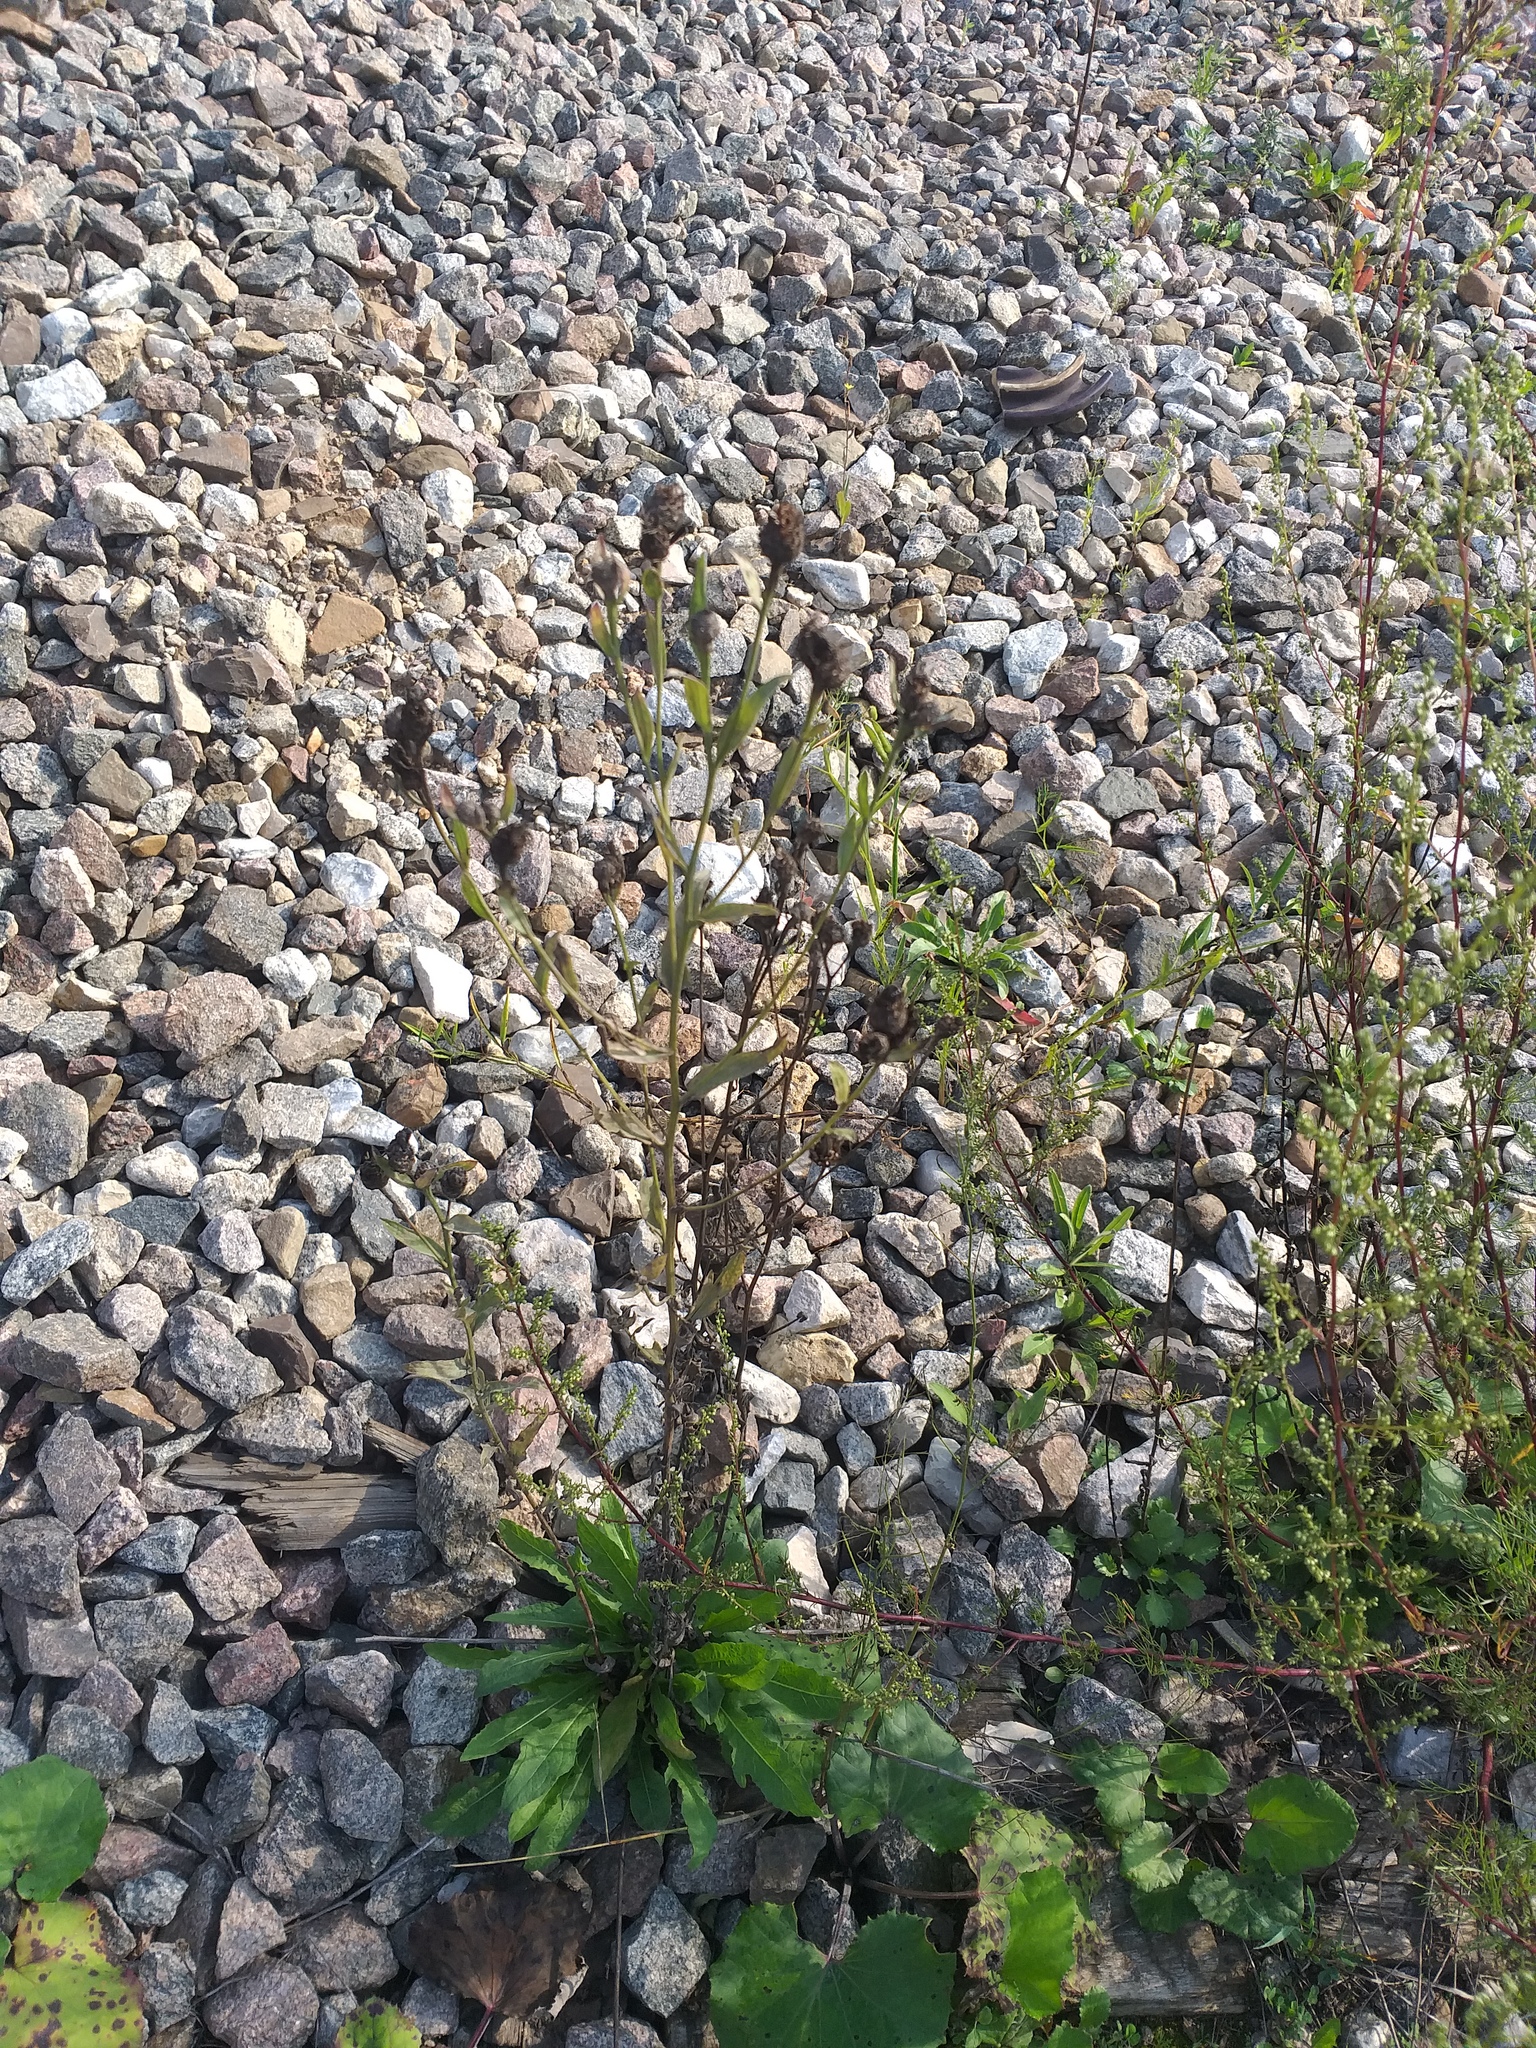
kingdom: Plantae
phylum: Tracheophyta
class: Magnoliopsida
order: Asterales
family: Asteraceae
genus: Centaurea
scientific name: Centaurea jacea
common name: Brown knapweed
